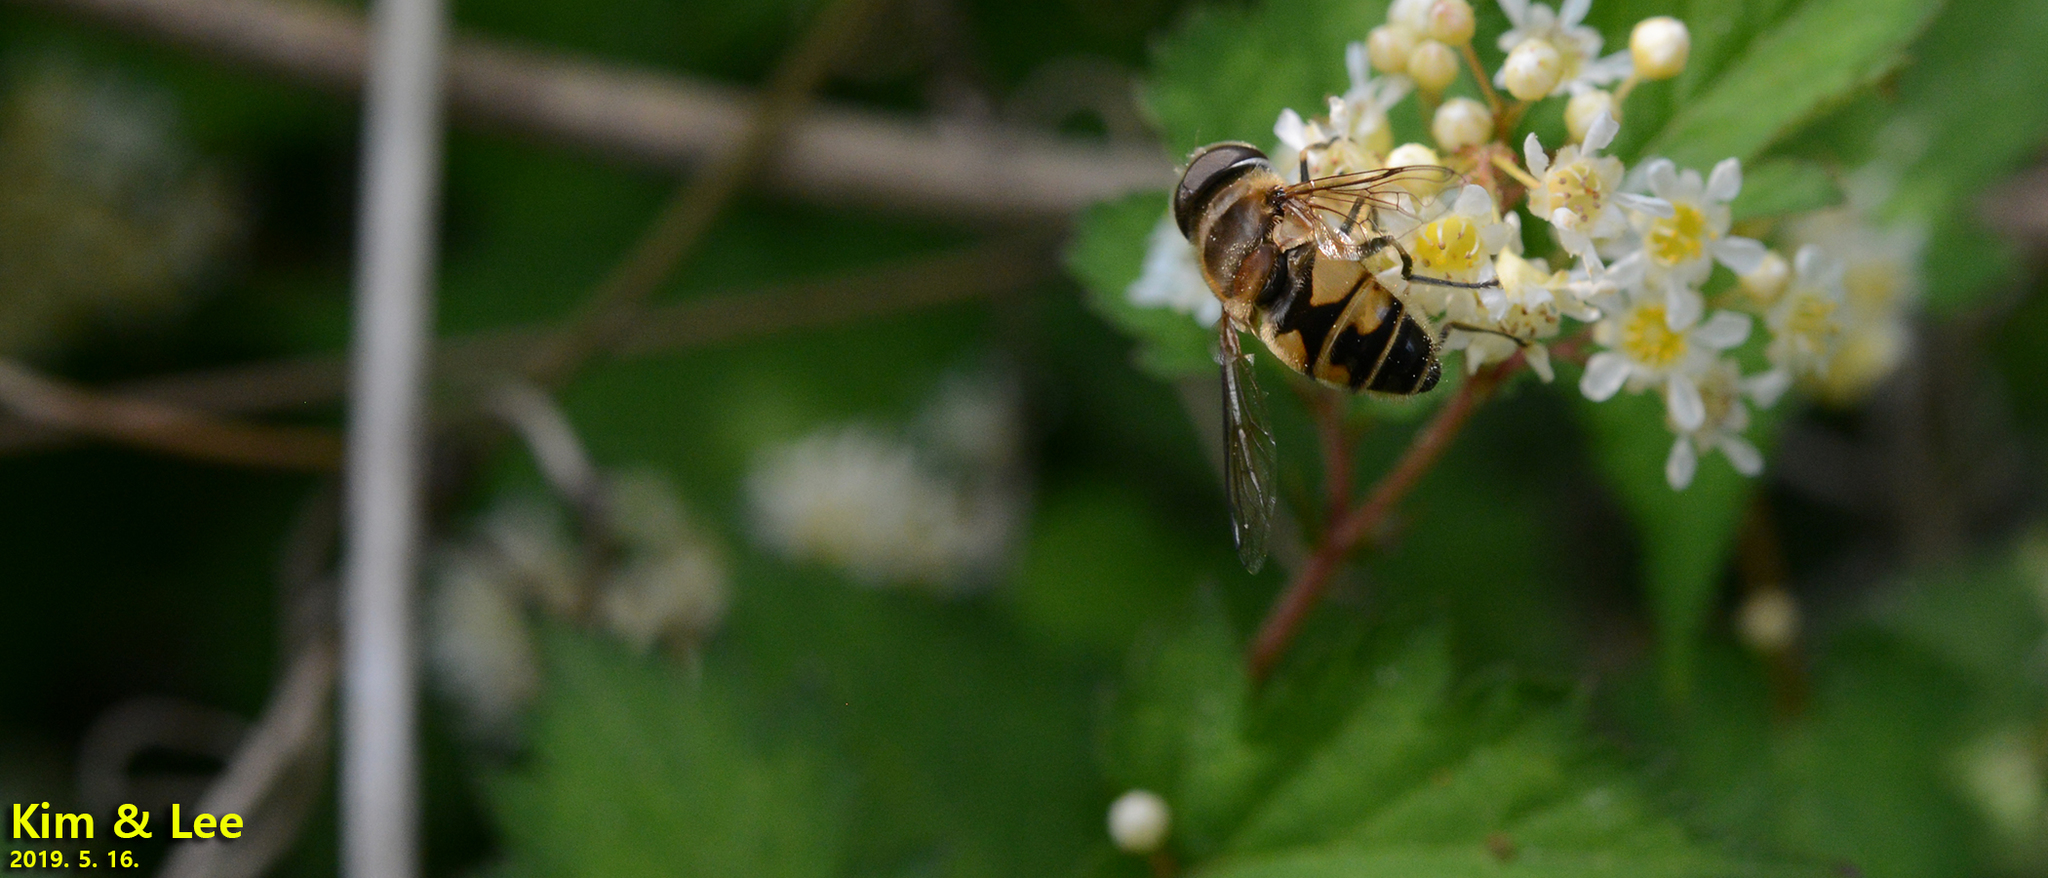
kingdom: Animalia
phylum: Arthropoda
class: Insecta
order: Diptera
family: Syrphidae
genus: Eristalis
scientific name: Eristalis kyokoae
